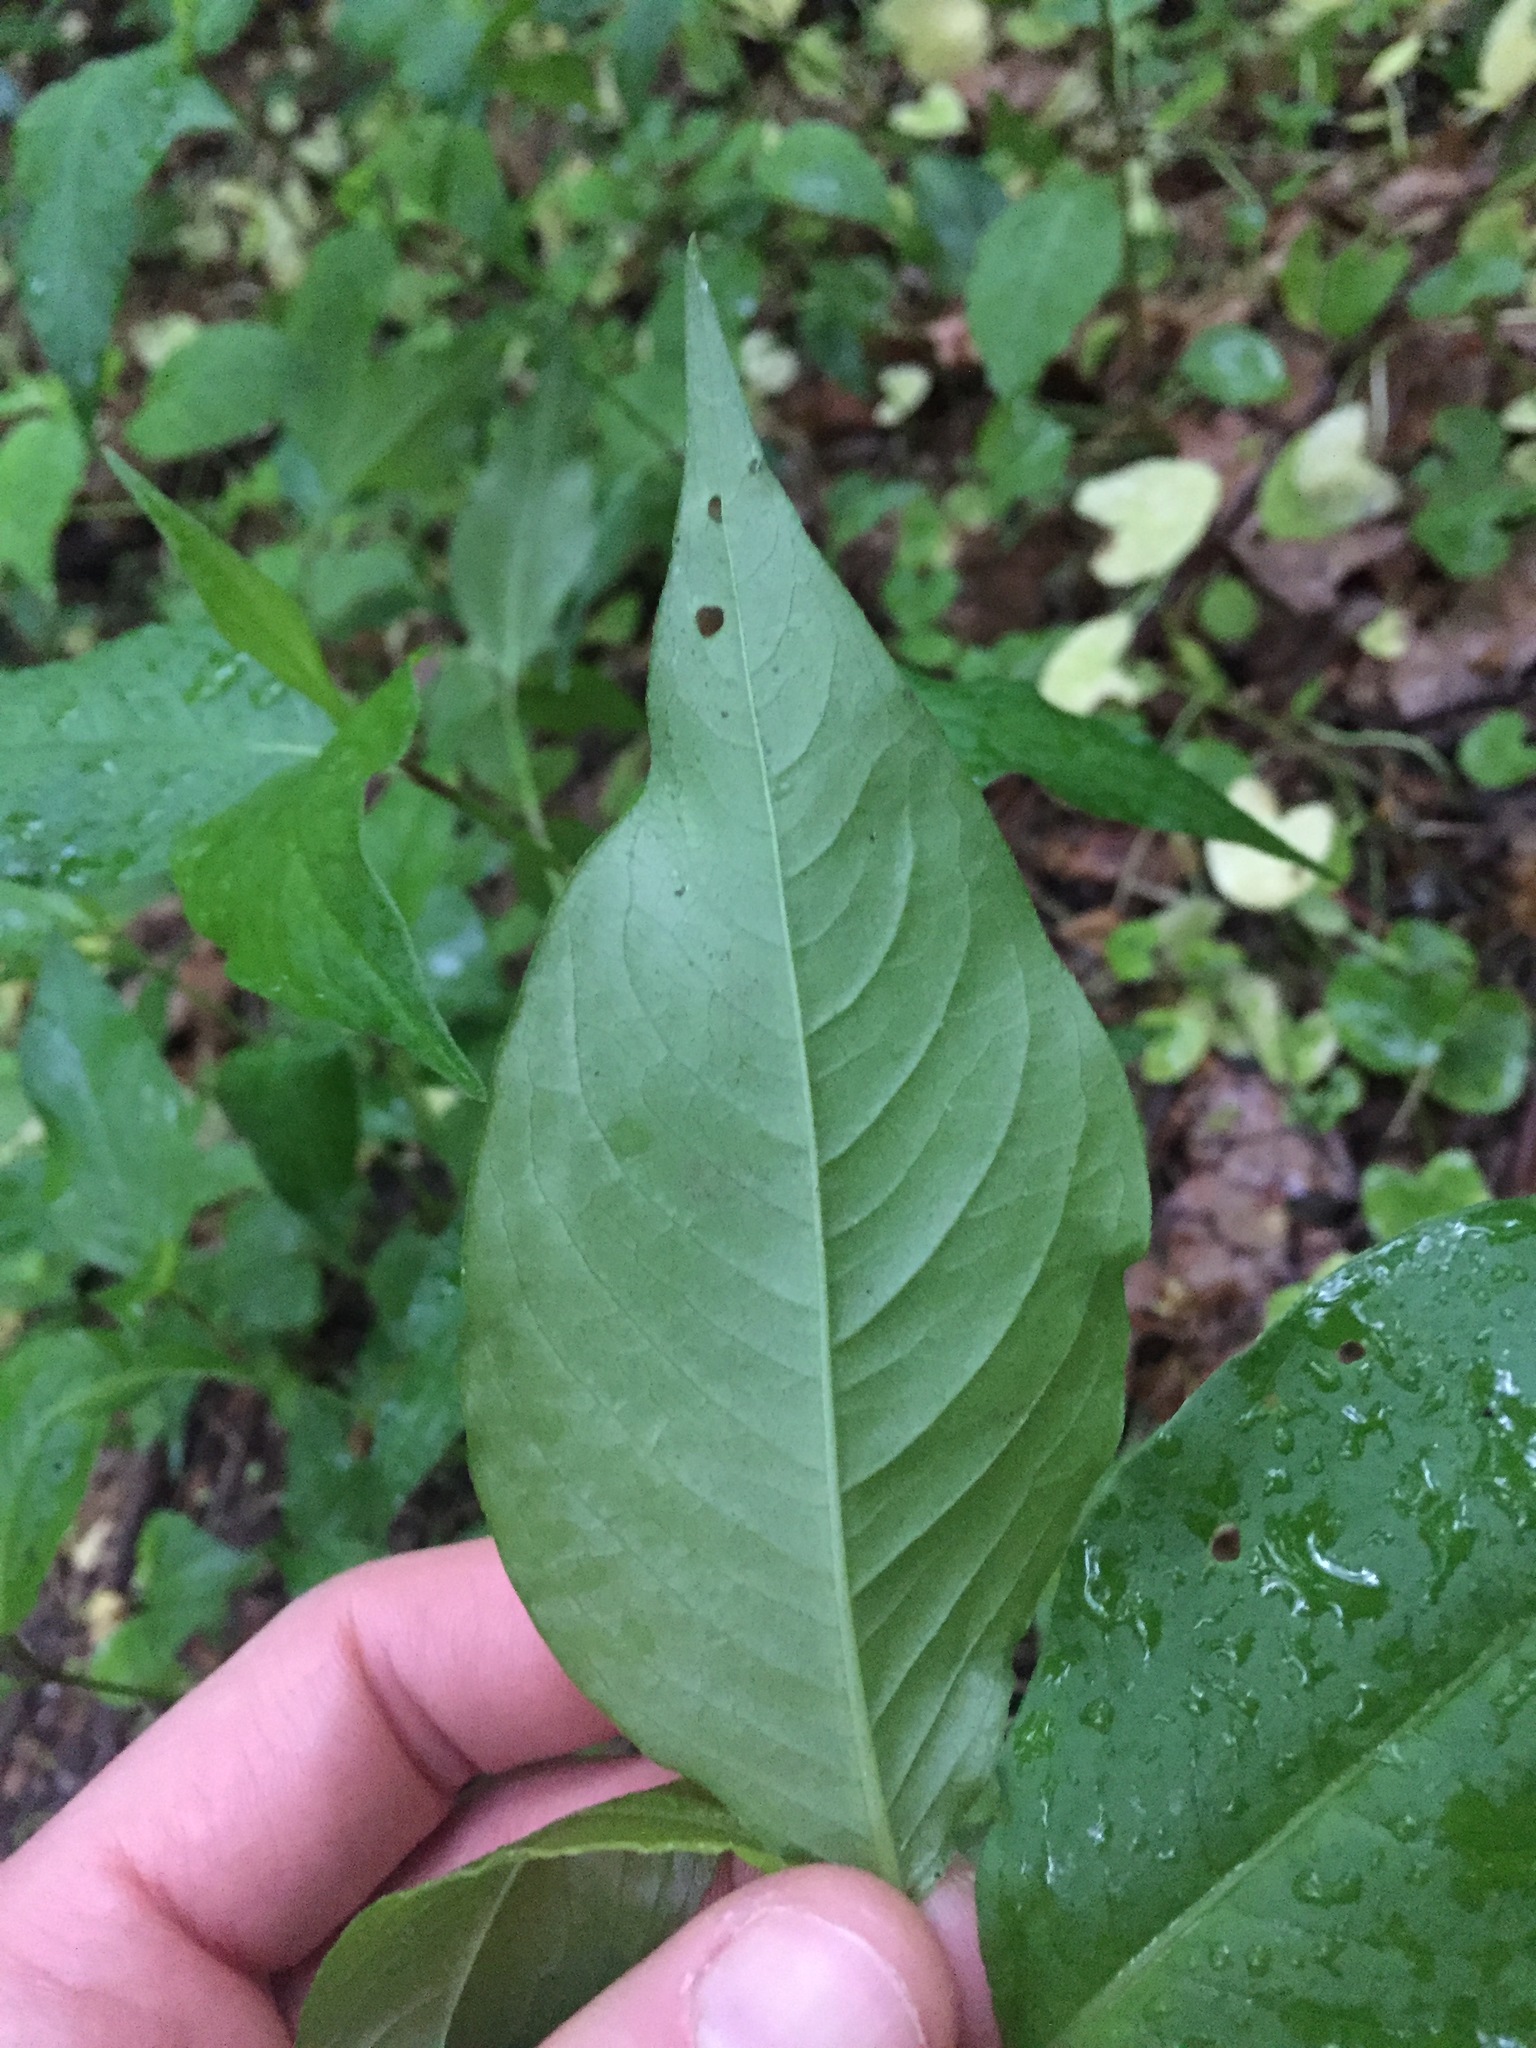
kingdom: Plantae
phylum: Tracheophyta
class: Magnoliopsida
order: Caryophyllales
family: Polygonaceae
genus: Persicaria
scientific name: Persicaria virginiana
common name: Jumpseed
